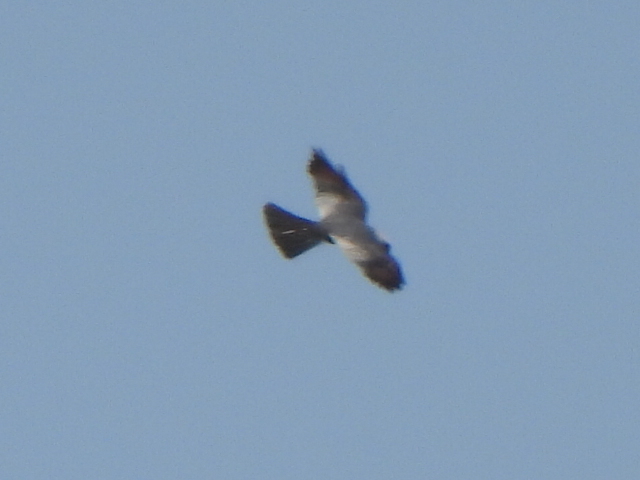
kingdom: Animalia
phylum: Chordata
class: Aves
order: Accipitriformes
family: Accipitridae
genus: Ictinia
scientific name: Ictinia mississippiensis
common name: Mississippi kite
